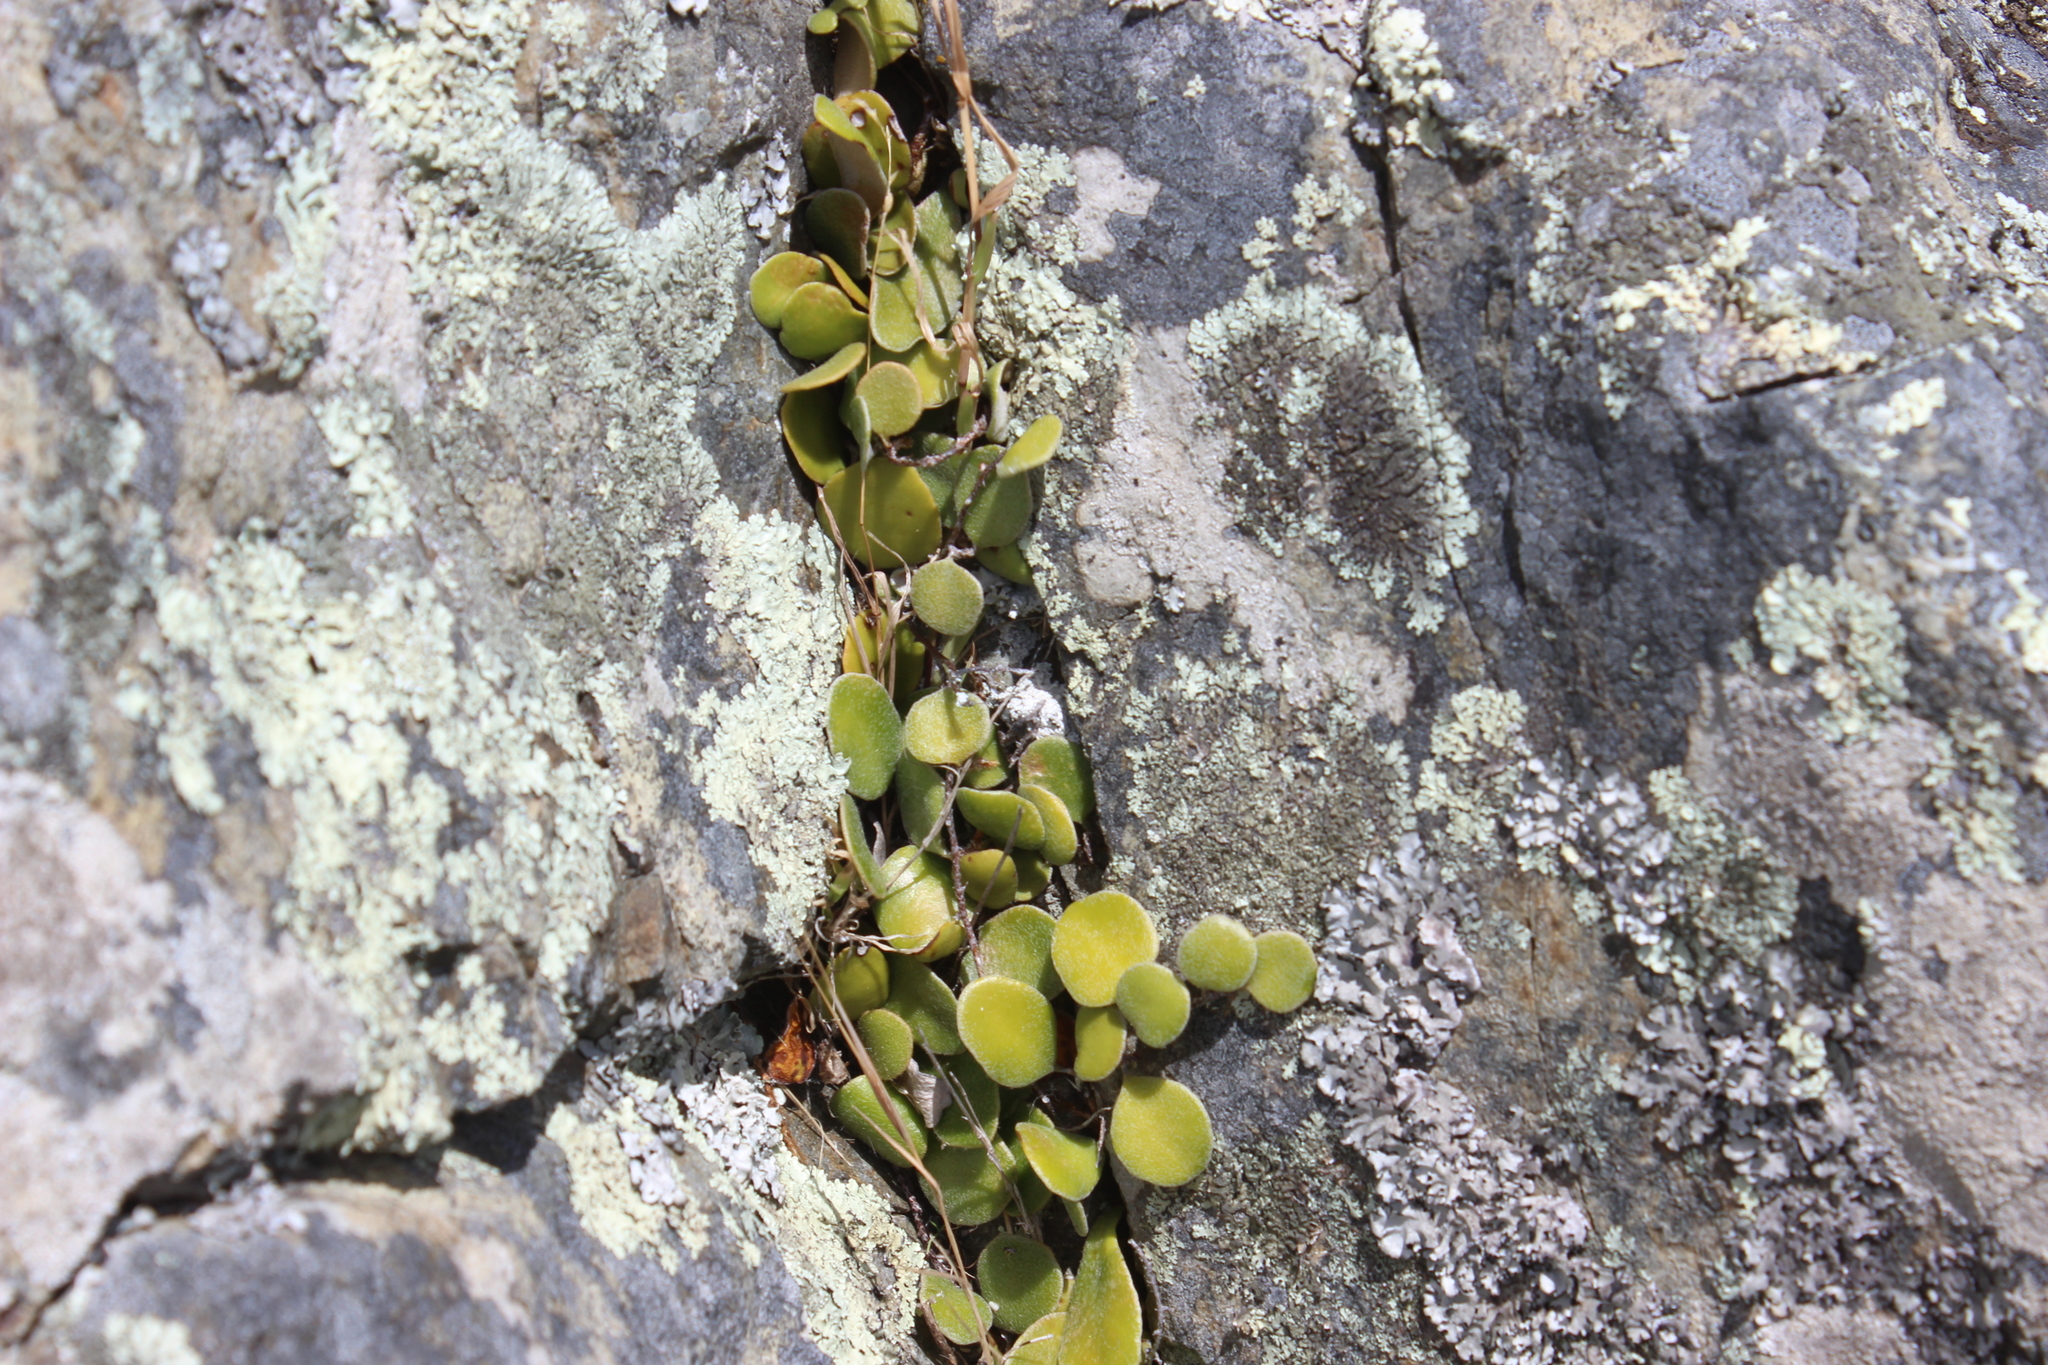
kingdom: Plantae
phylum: Tracheophyta
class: Polypodiopsida
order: Polypodiales
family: Polypodiaceae
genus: Pyrrosia
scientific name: Pyrrosia eleagnifolia
